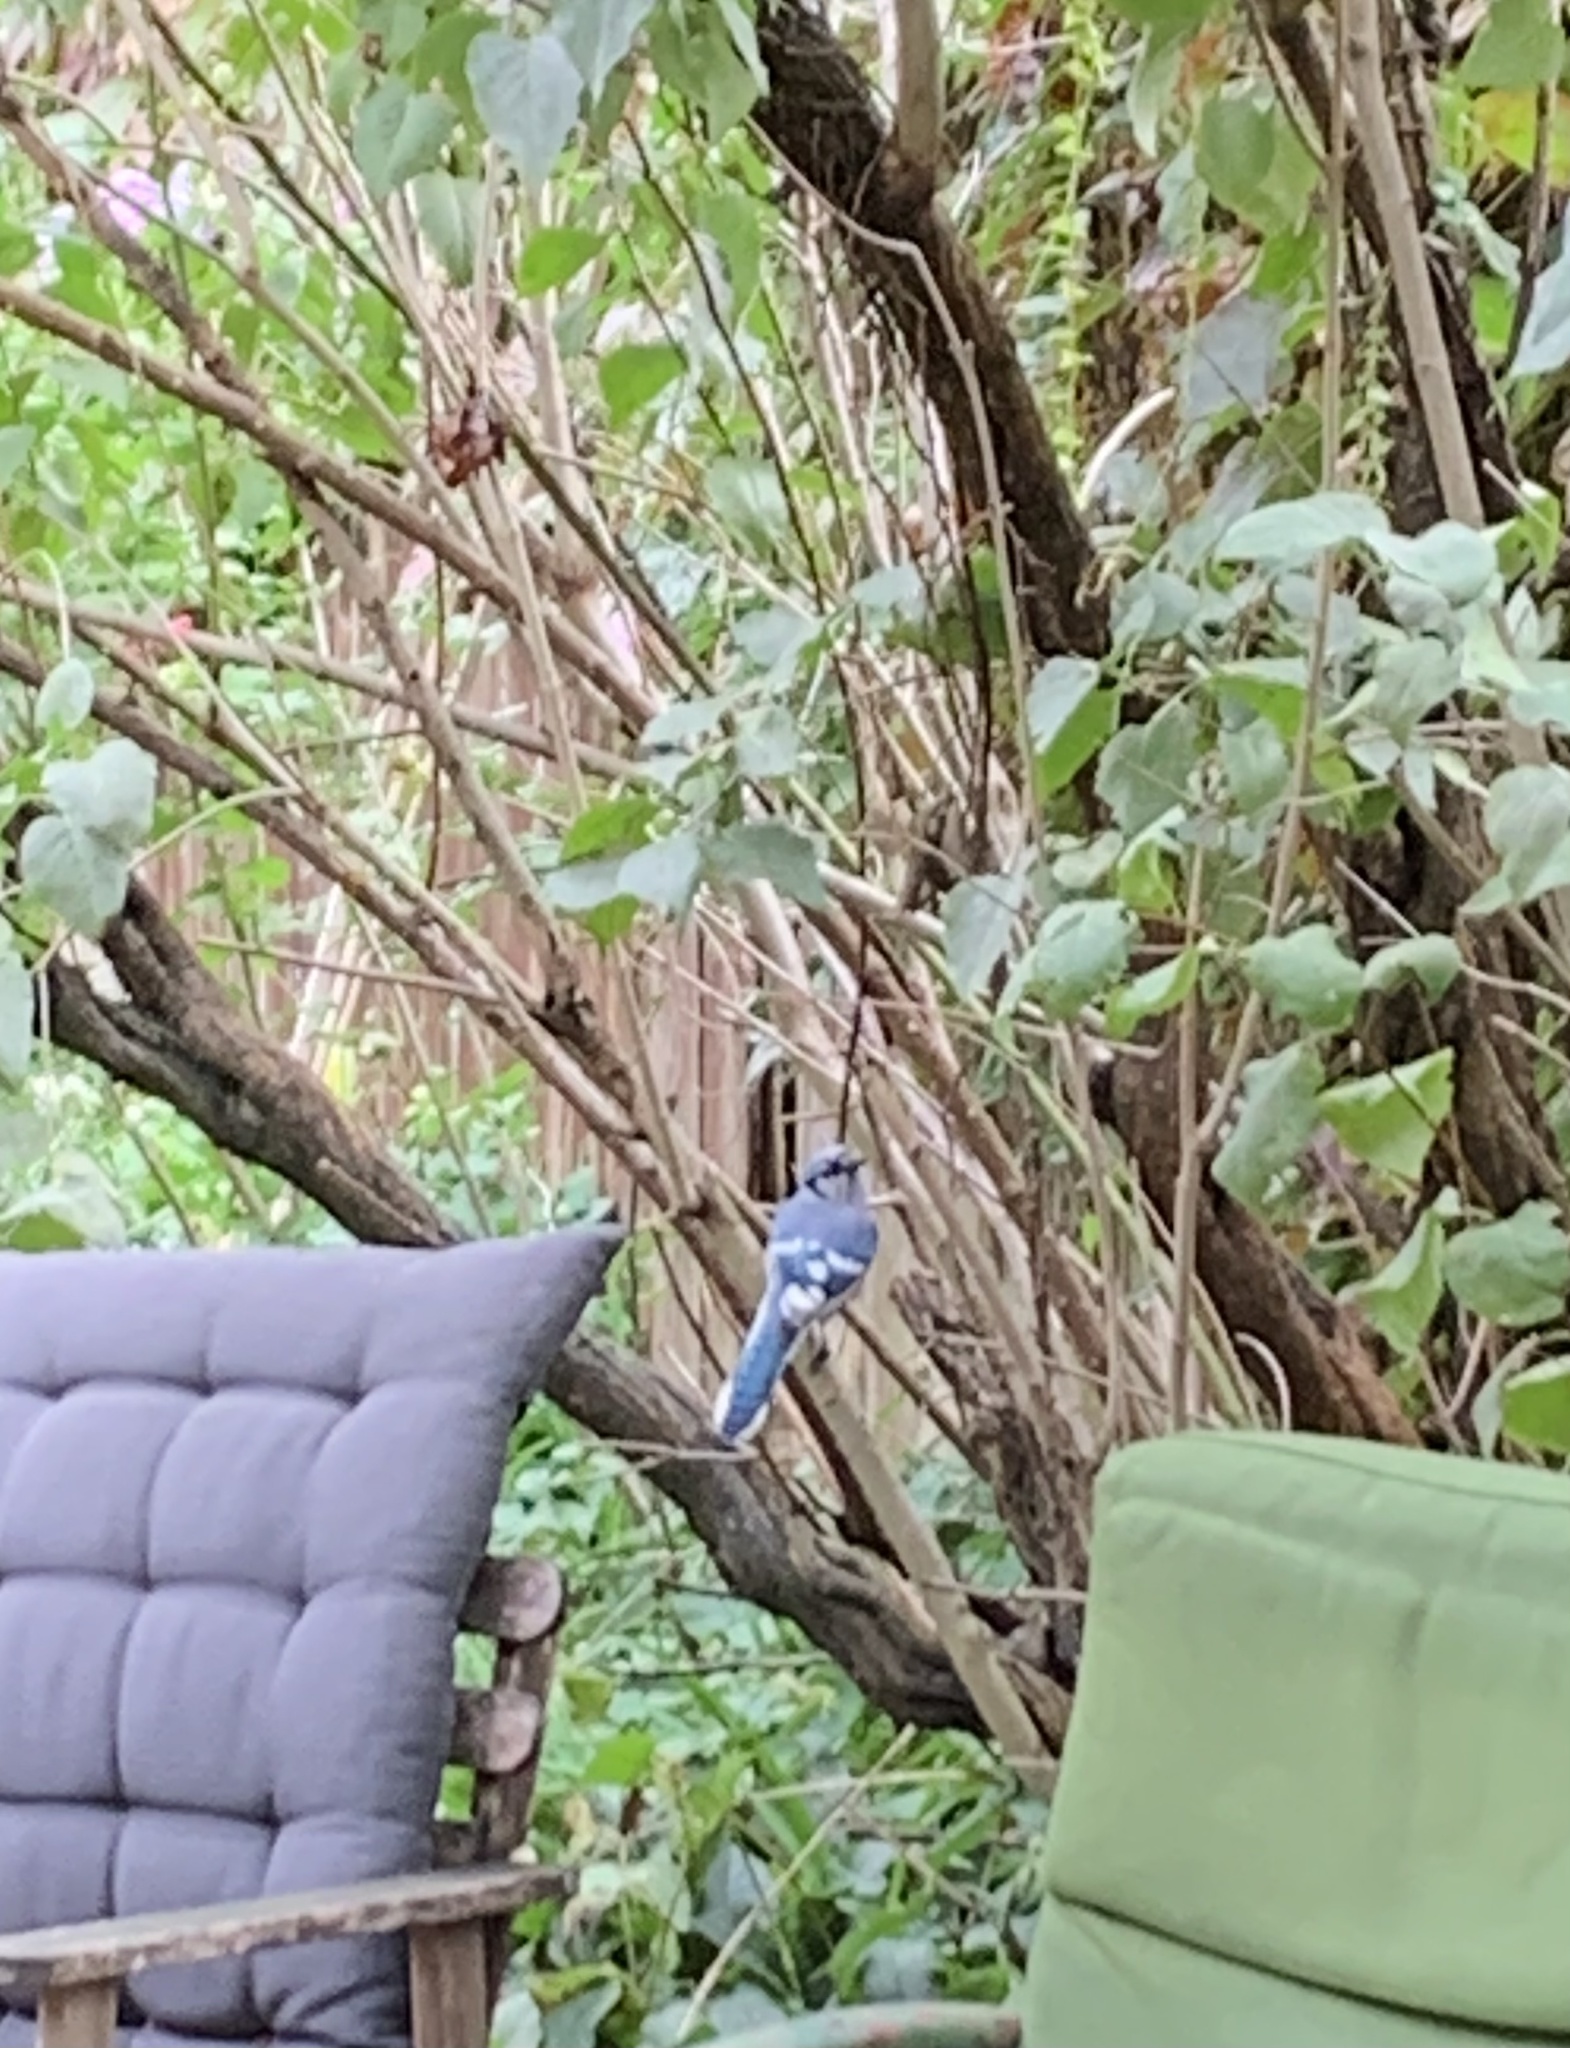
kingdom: Animalia
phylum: Chordata
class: Aves
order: Passeriformes
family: Corvidae
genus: Cyanocitta
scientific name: Cyanocitta cristata
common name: Blue jay
